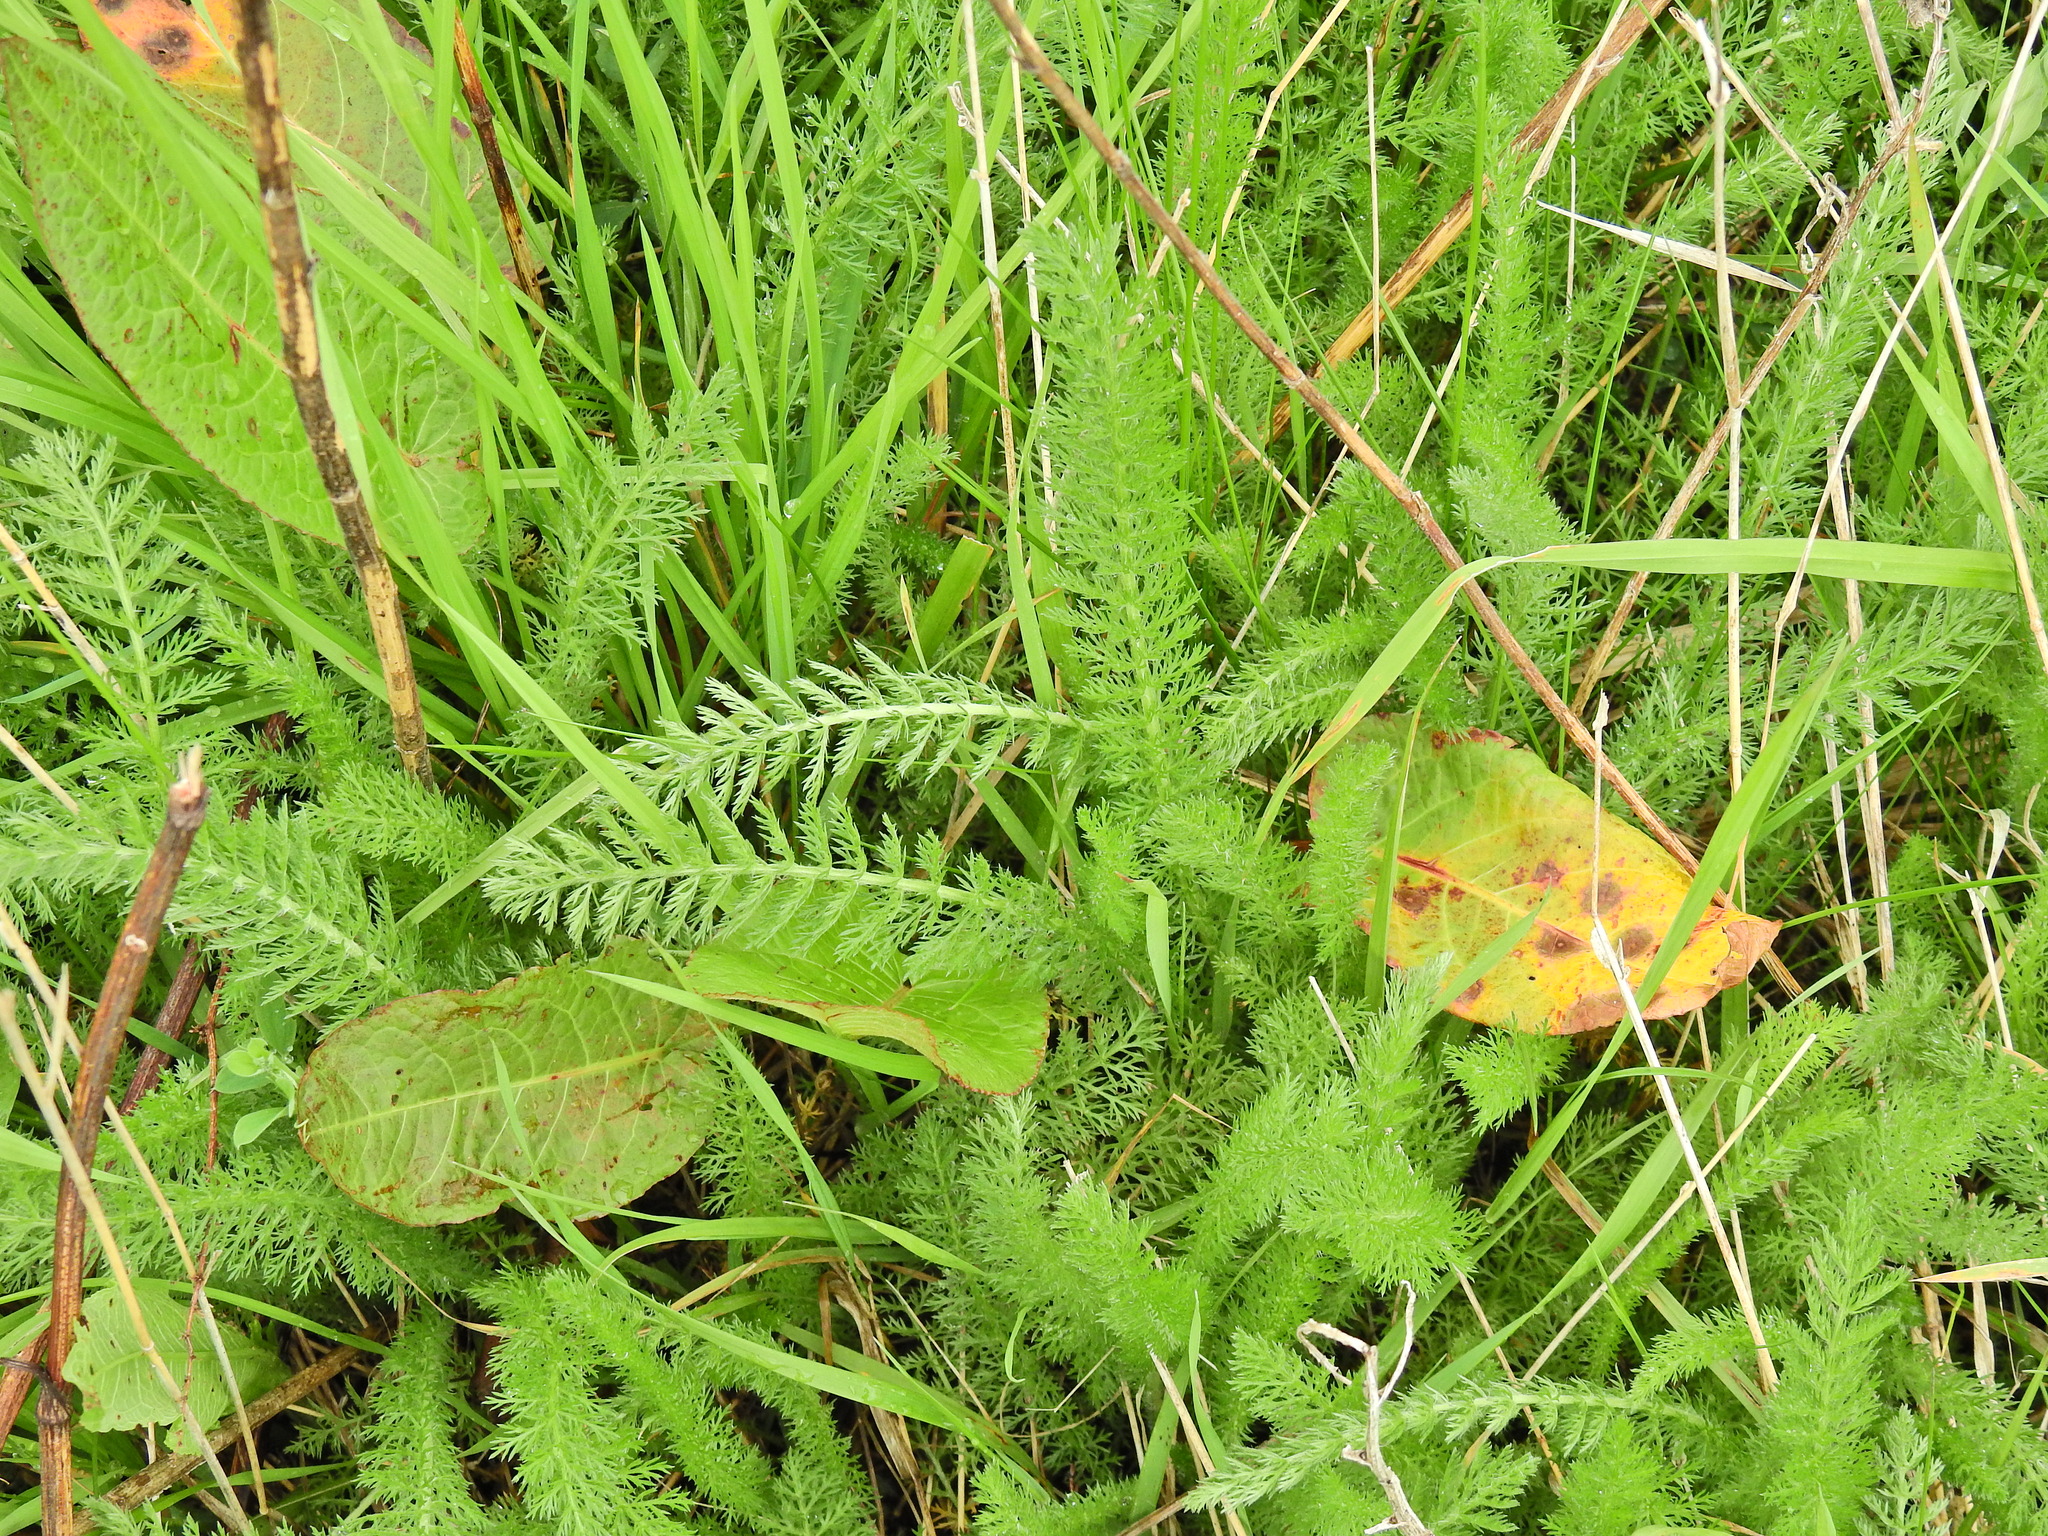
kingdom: Plantae
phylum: Tracheophyta
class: Magnoliopsida
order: Asterales
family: Asteraceae
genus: Achillea
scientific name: Achillea millefolium
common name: Yarrow
